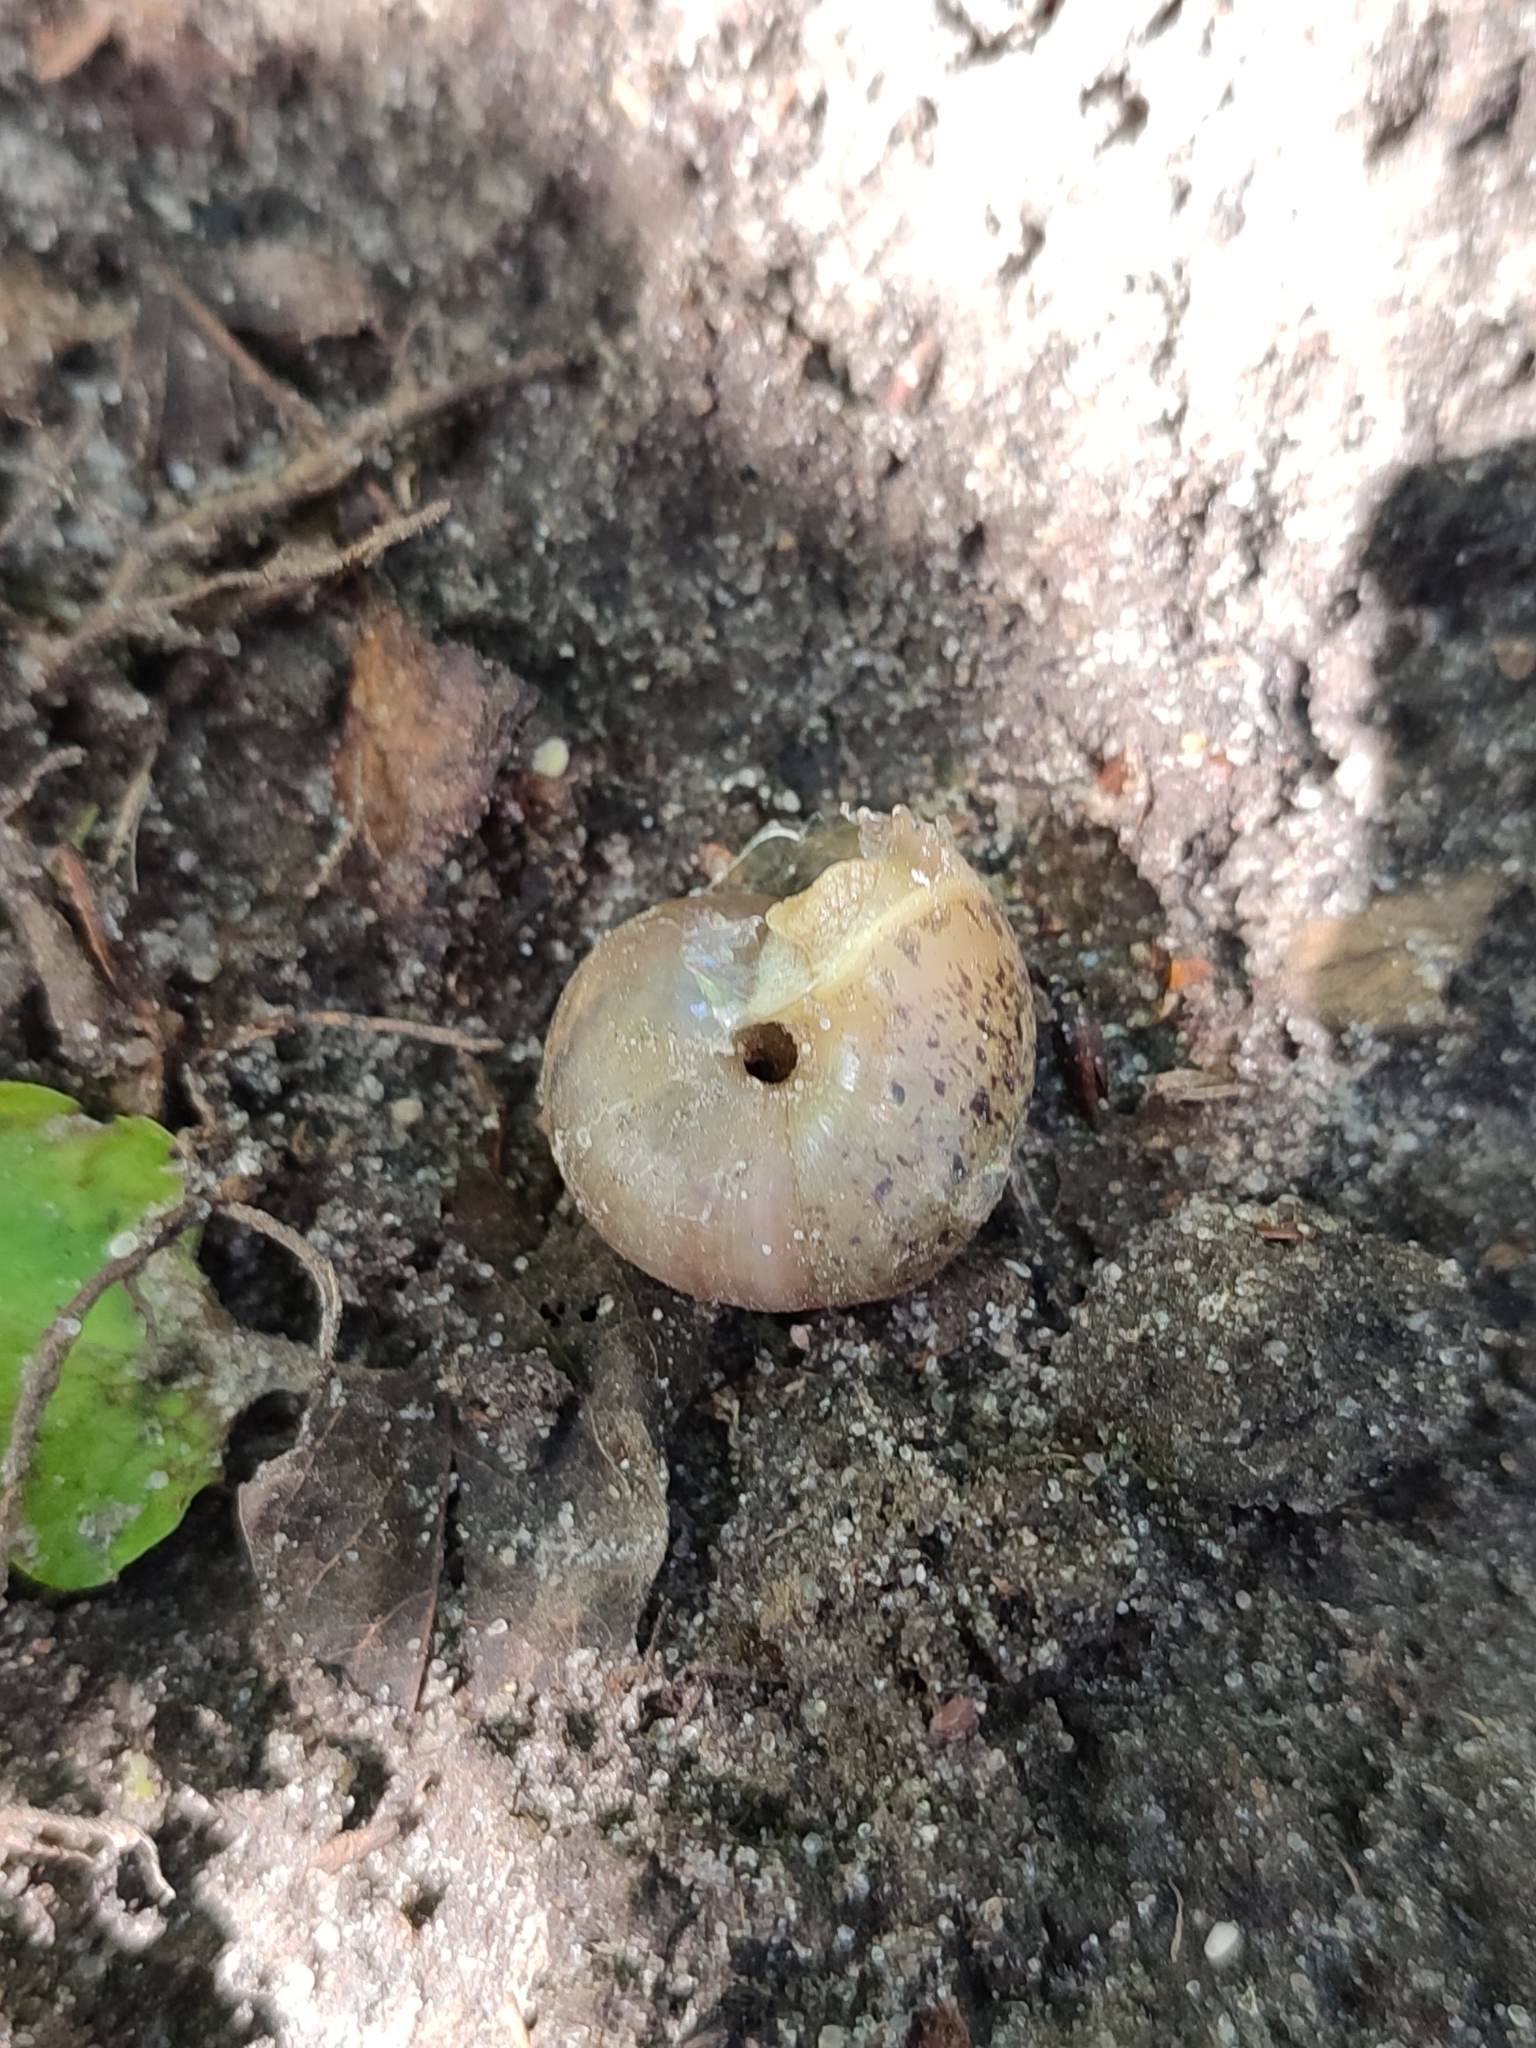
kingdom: Animalia
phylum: Mollusca
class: Gastropoda
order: Stylommatophora
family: Camaenidae
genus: Fruticicola
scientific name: Fruticicola fruticum
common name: Bush snail
